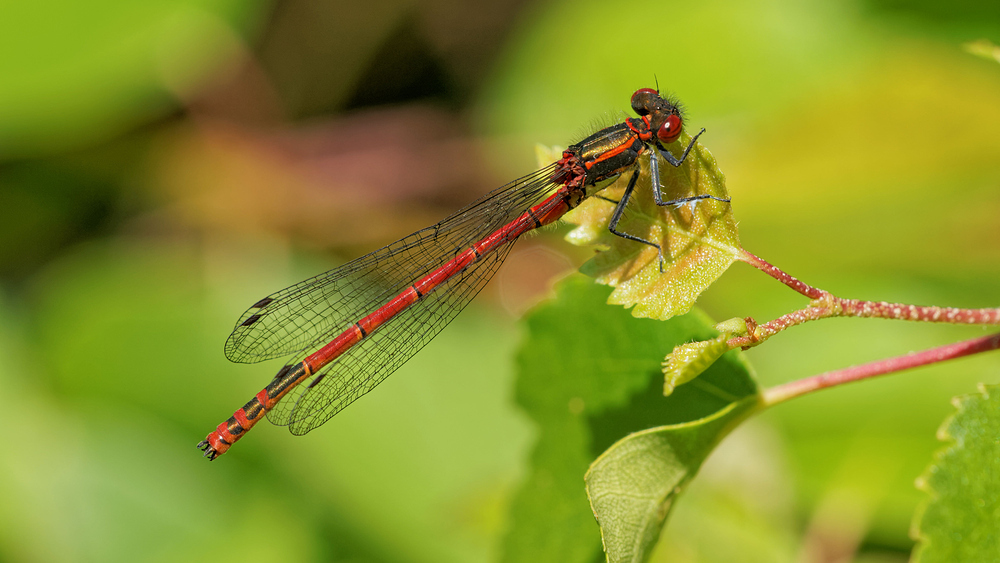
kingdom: Animalia
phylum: Arthropoda
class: Insecta
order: Odonata
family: Coenagrionidae
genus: Pyrrhosoma
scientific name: Pyrrhosoma nymphula
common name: Large red damsel
